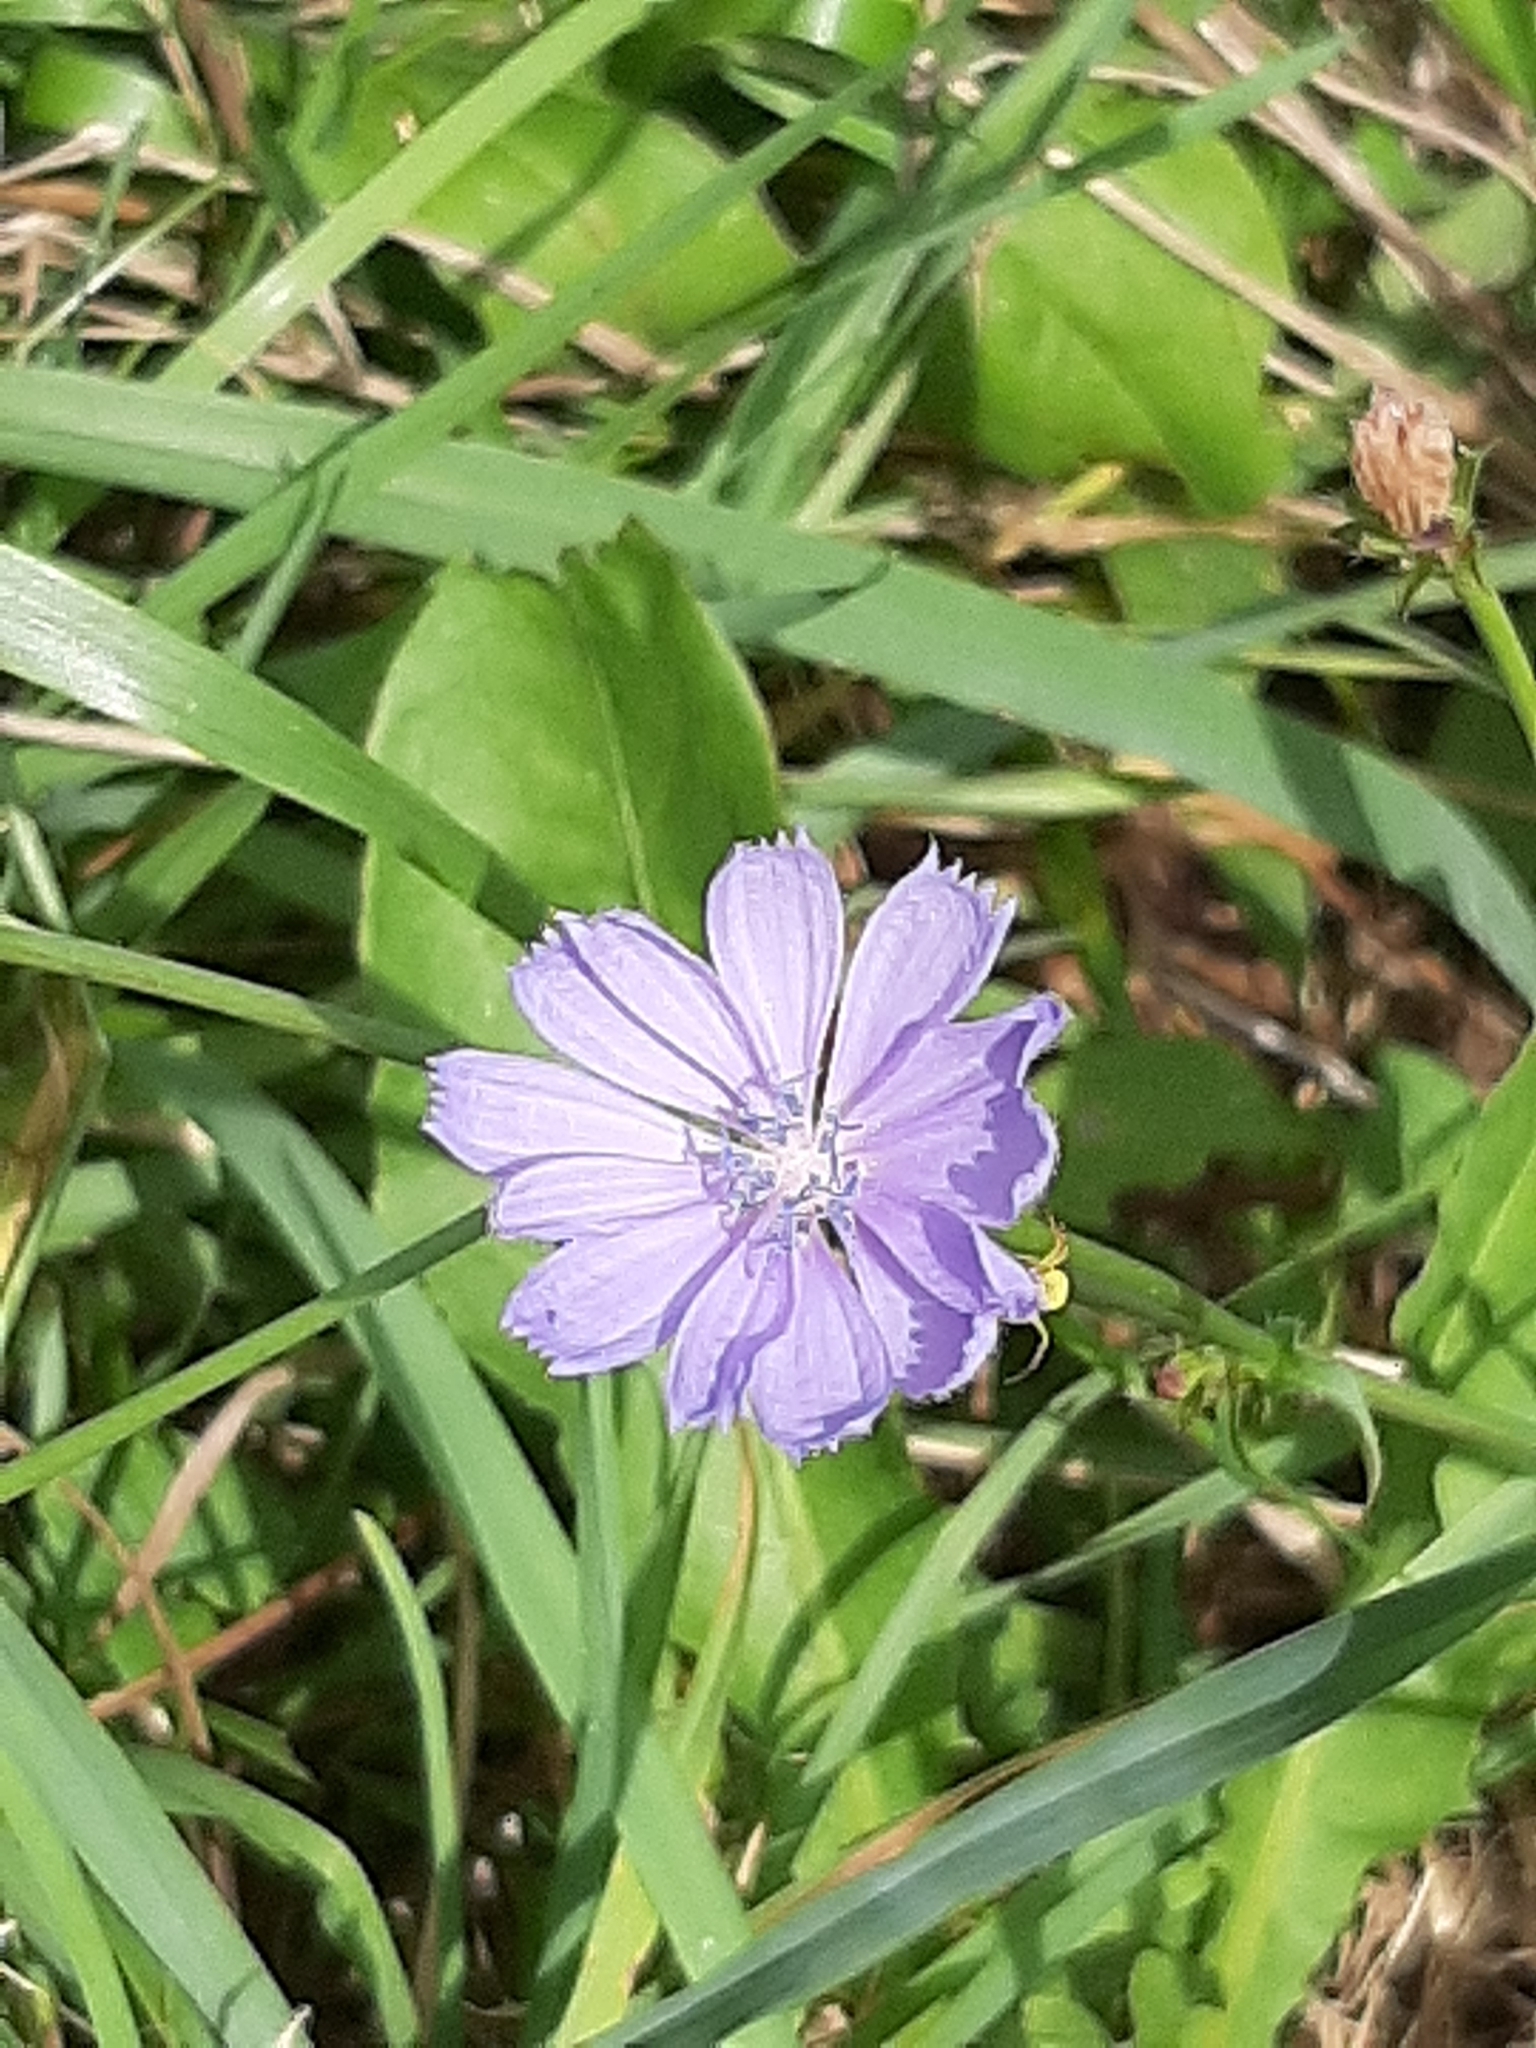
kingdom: Plantae
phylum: Tracheophyta
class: Magnoliopsida
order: Asterales
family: Asteraceae
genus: Cichorium
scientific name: Cichorium intybus
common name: Chicory
